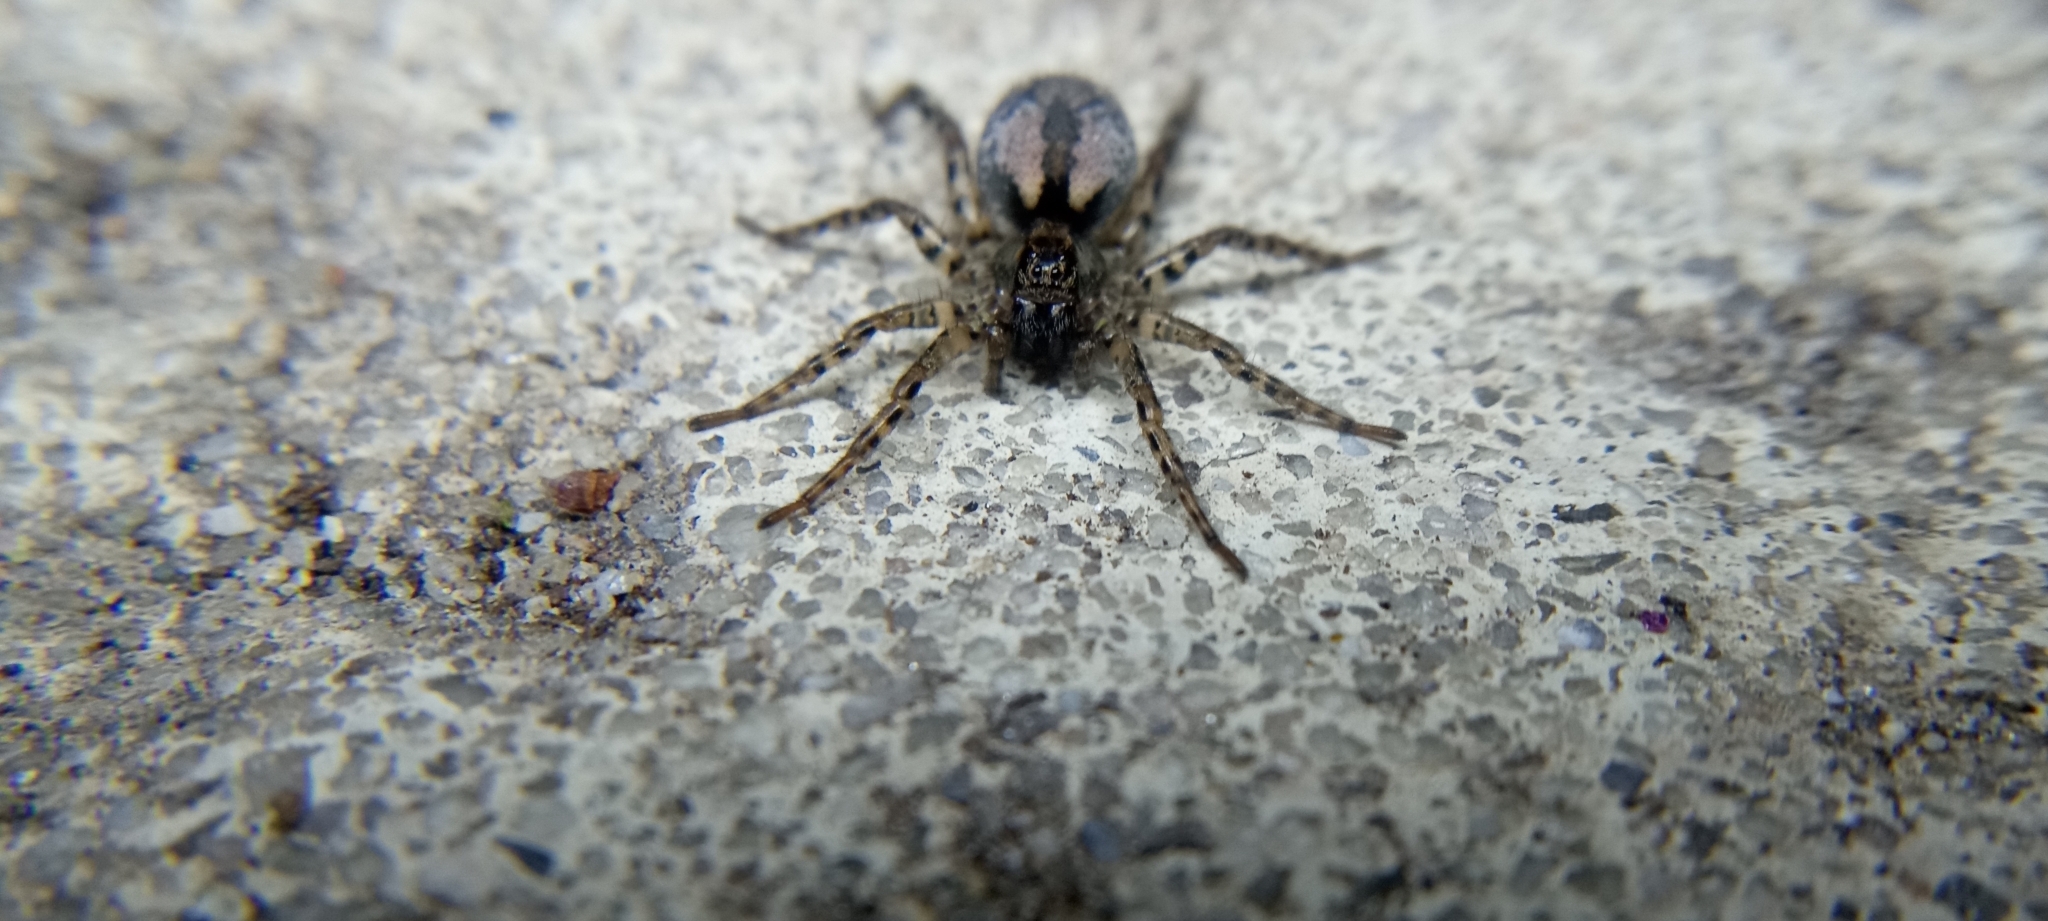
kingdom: Animalia
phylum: Arthropoda
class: Arachnida
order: Araneae
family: Lycosidae
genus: Allocosa
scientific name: Allocosa subparva
